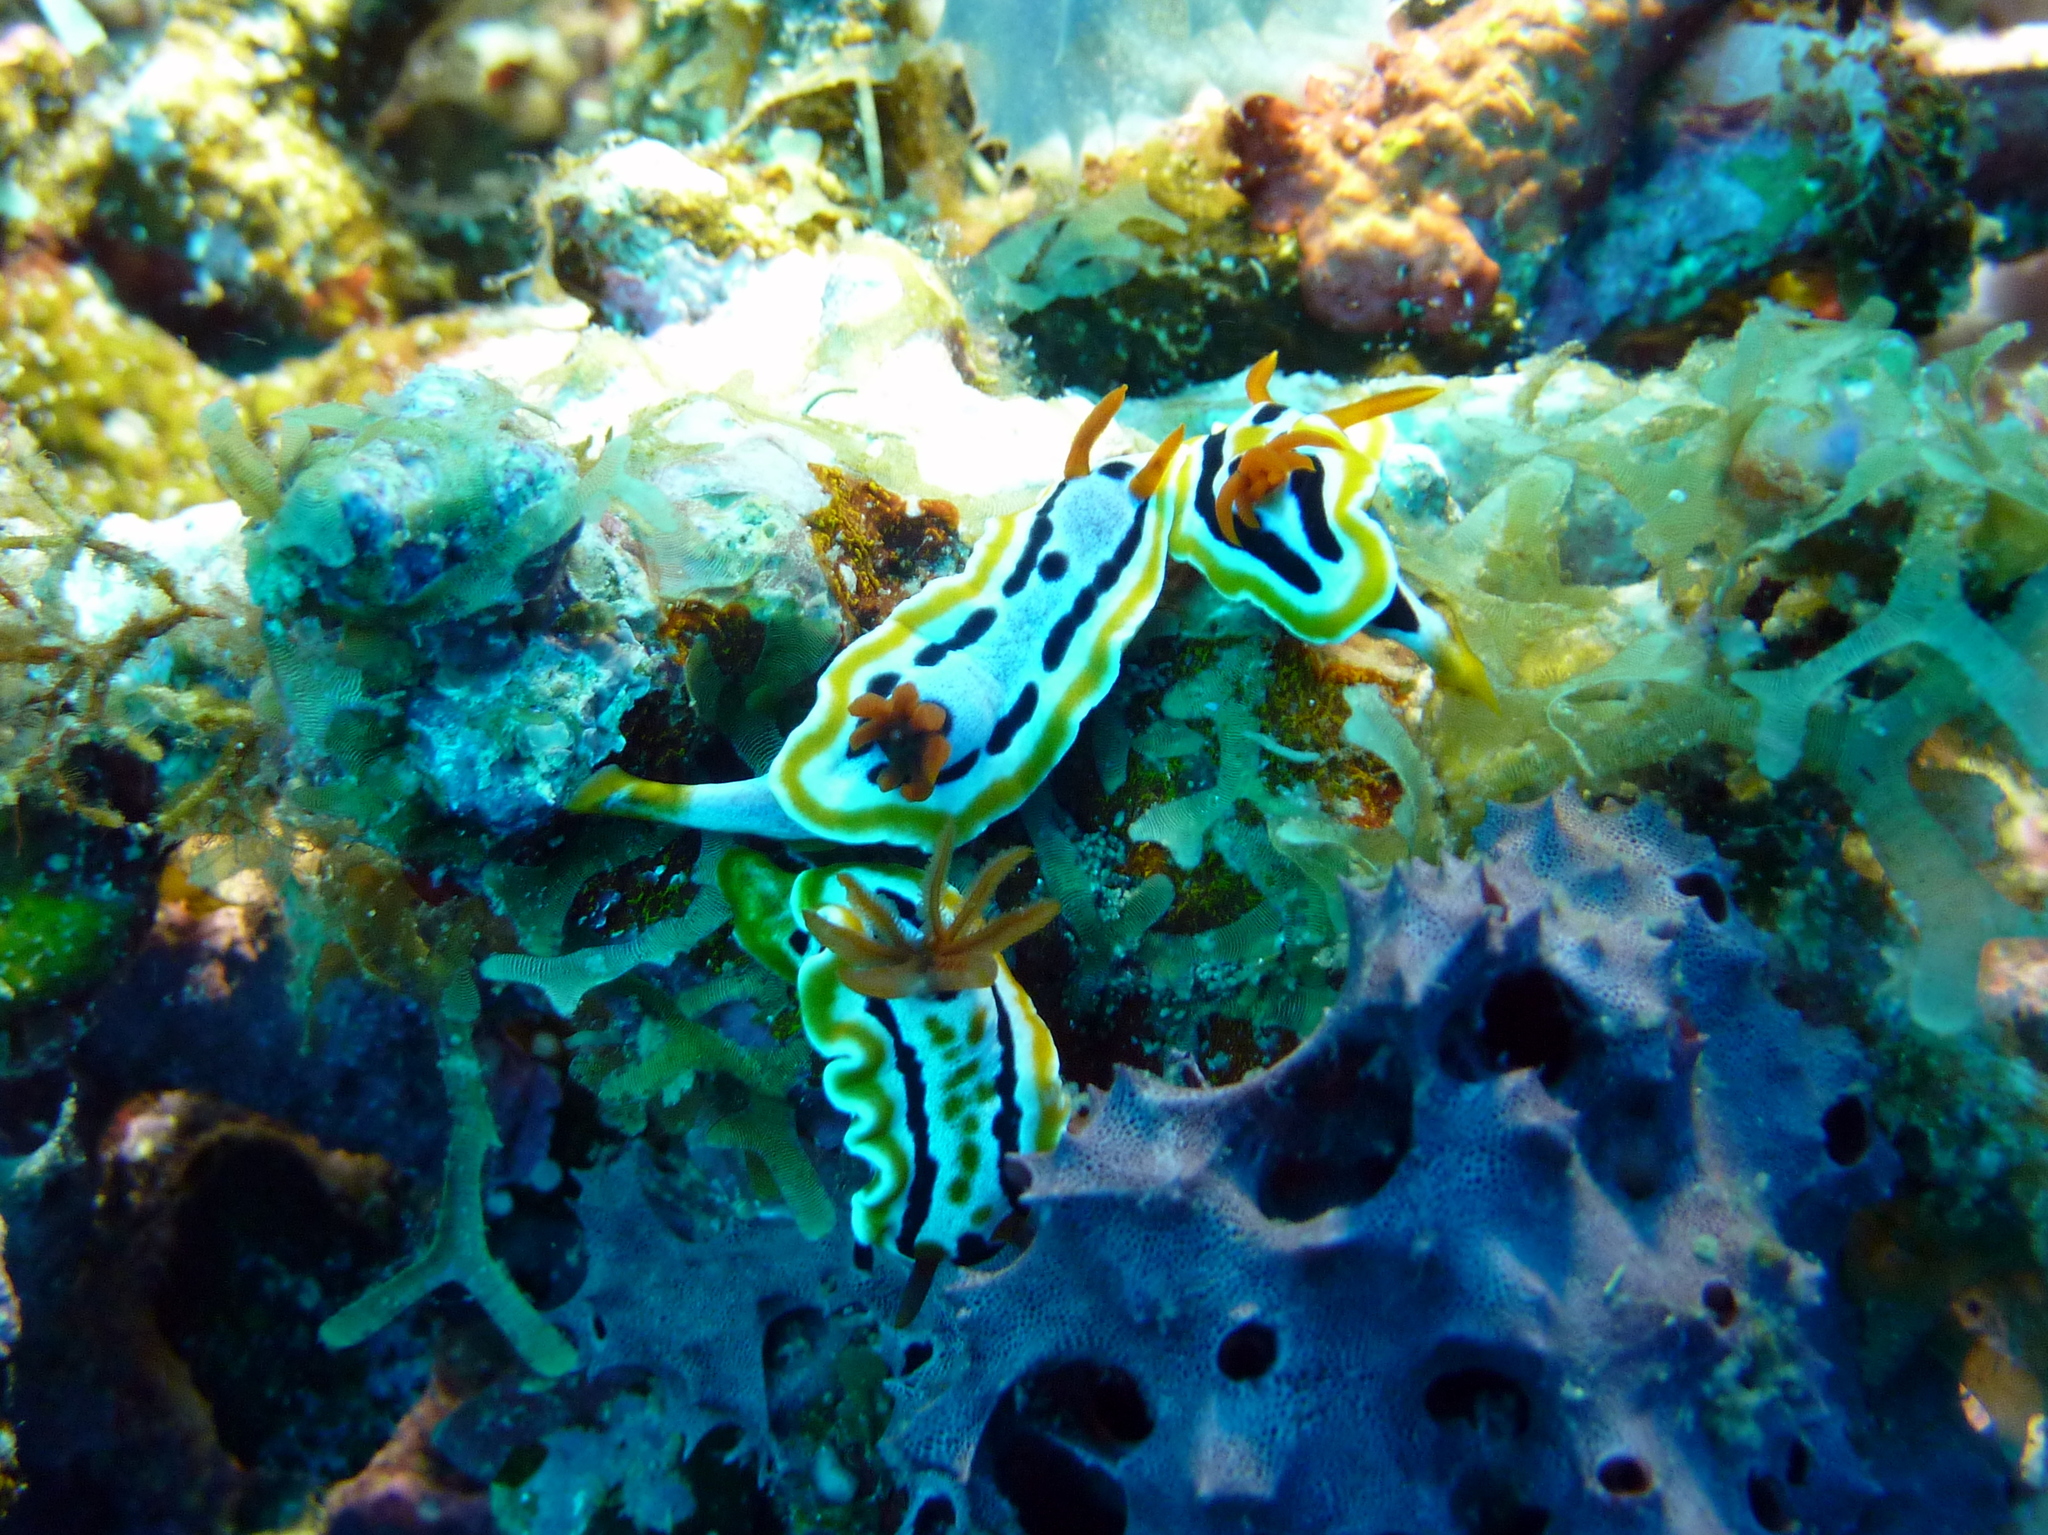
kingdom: Animalia
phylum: Mollusca
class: Gastropoda
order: Nudibranchia
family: Chromodorididae
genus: Chromodoris
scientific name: Chromodoris colemani
